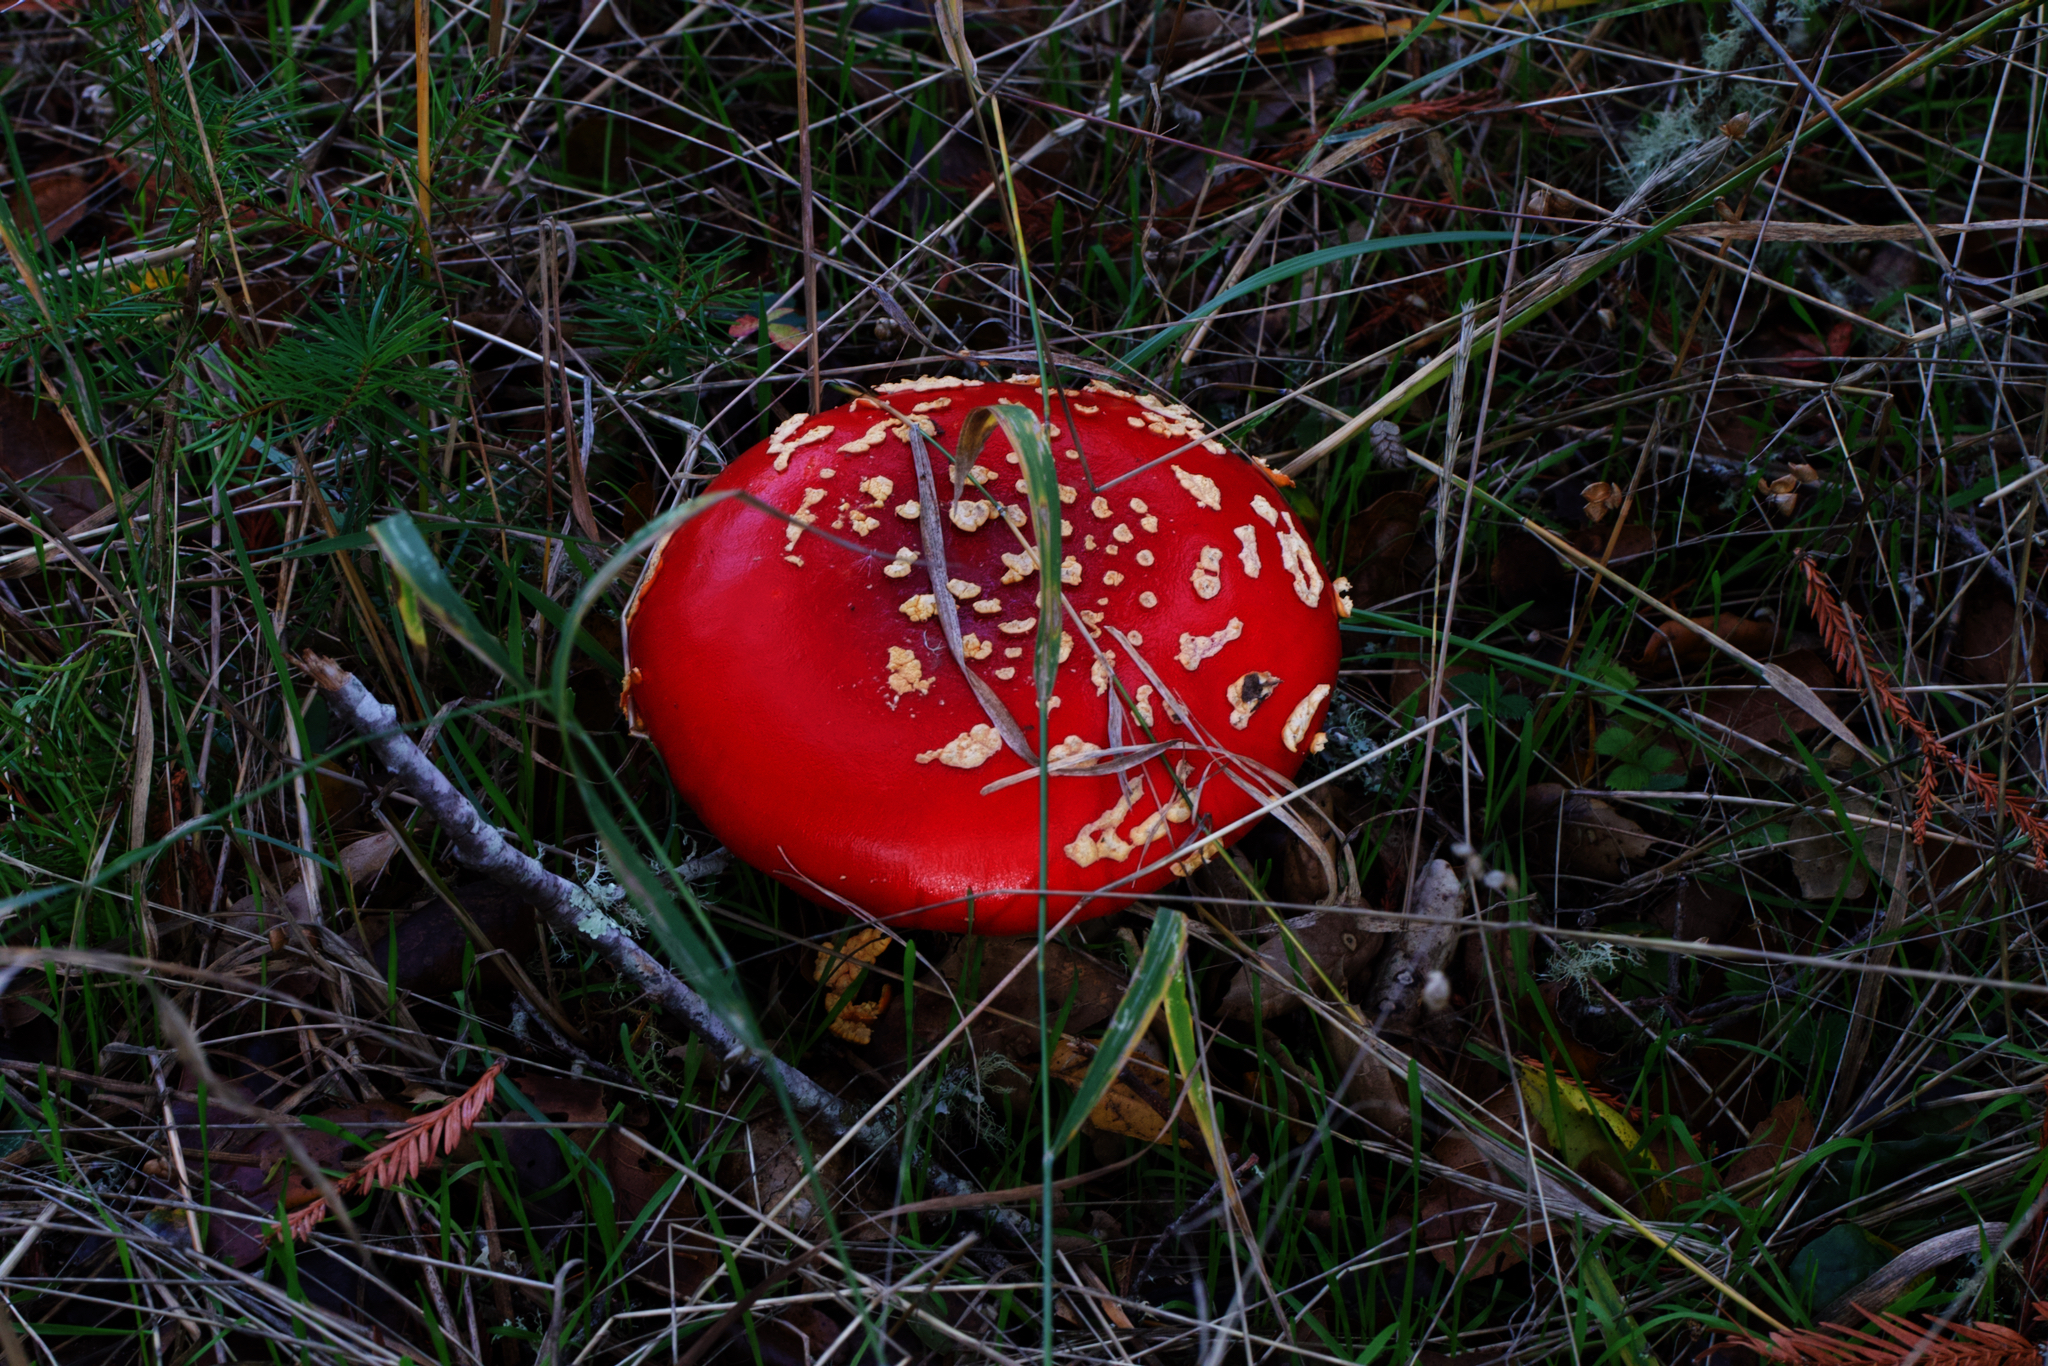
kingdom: Fungi
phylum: Basidiomycota
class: Agaricomycetes
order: Agaricales
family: Amanitaceae
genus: Amanita
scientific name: Amanita muscaria
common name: Fly agaric
